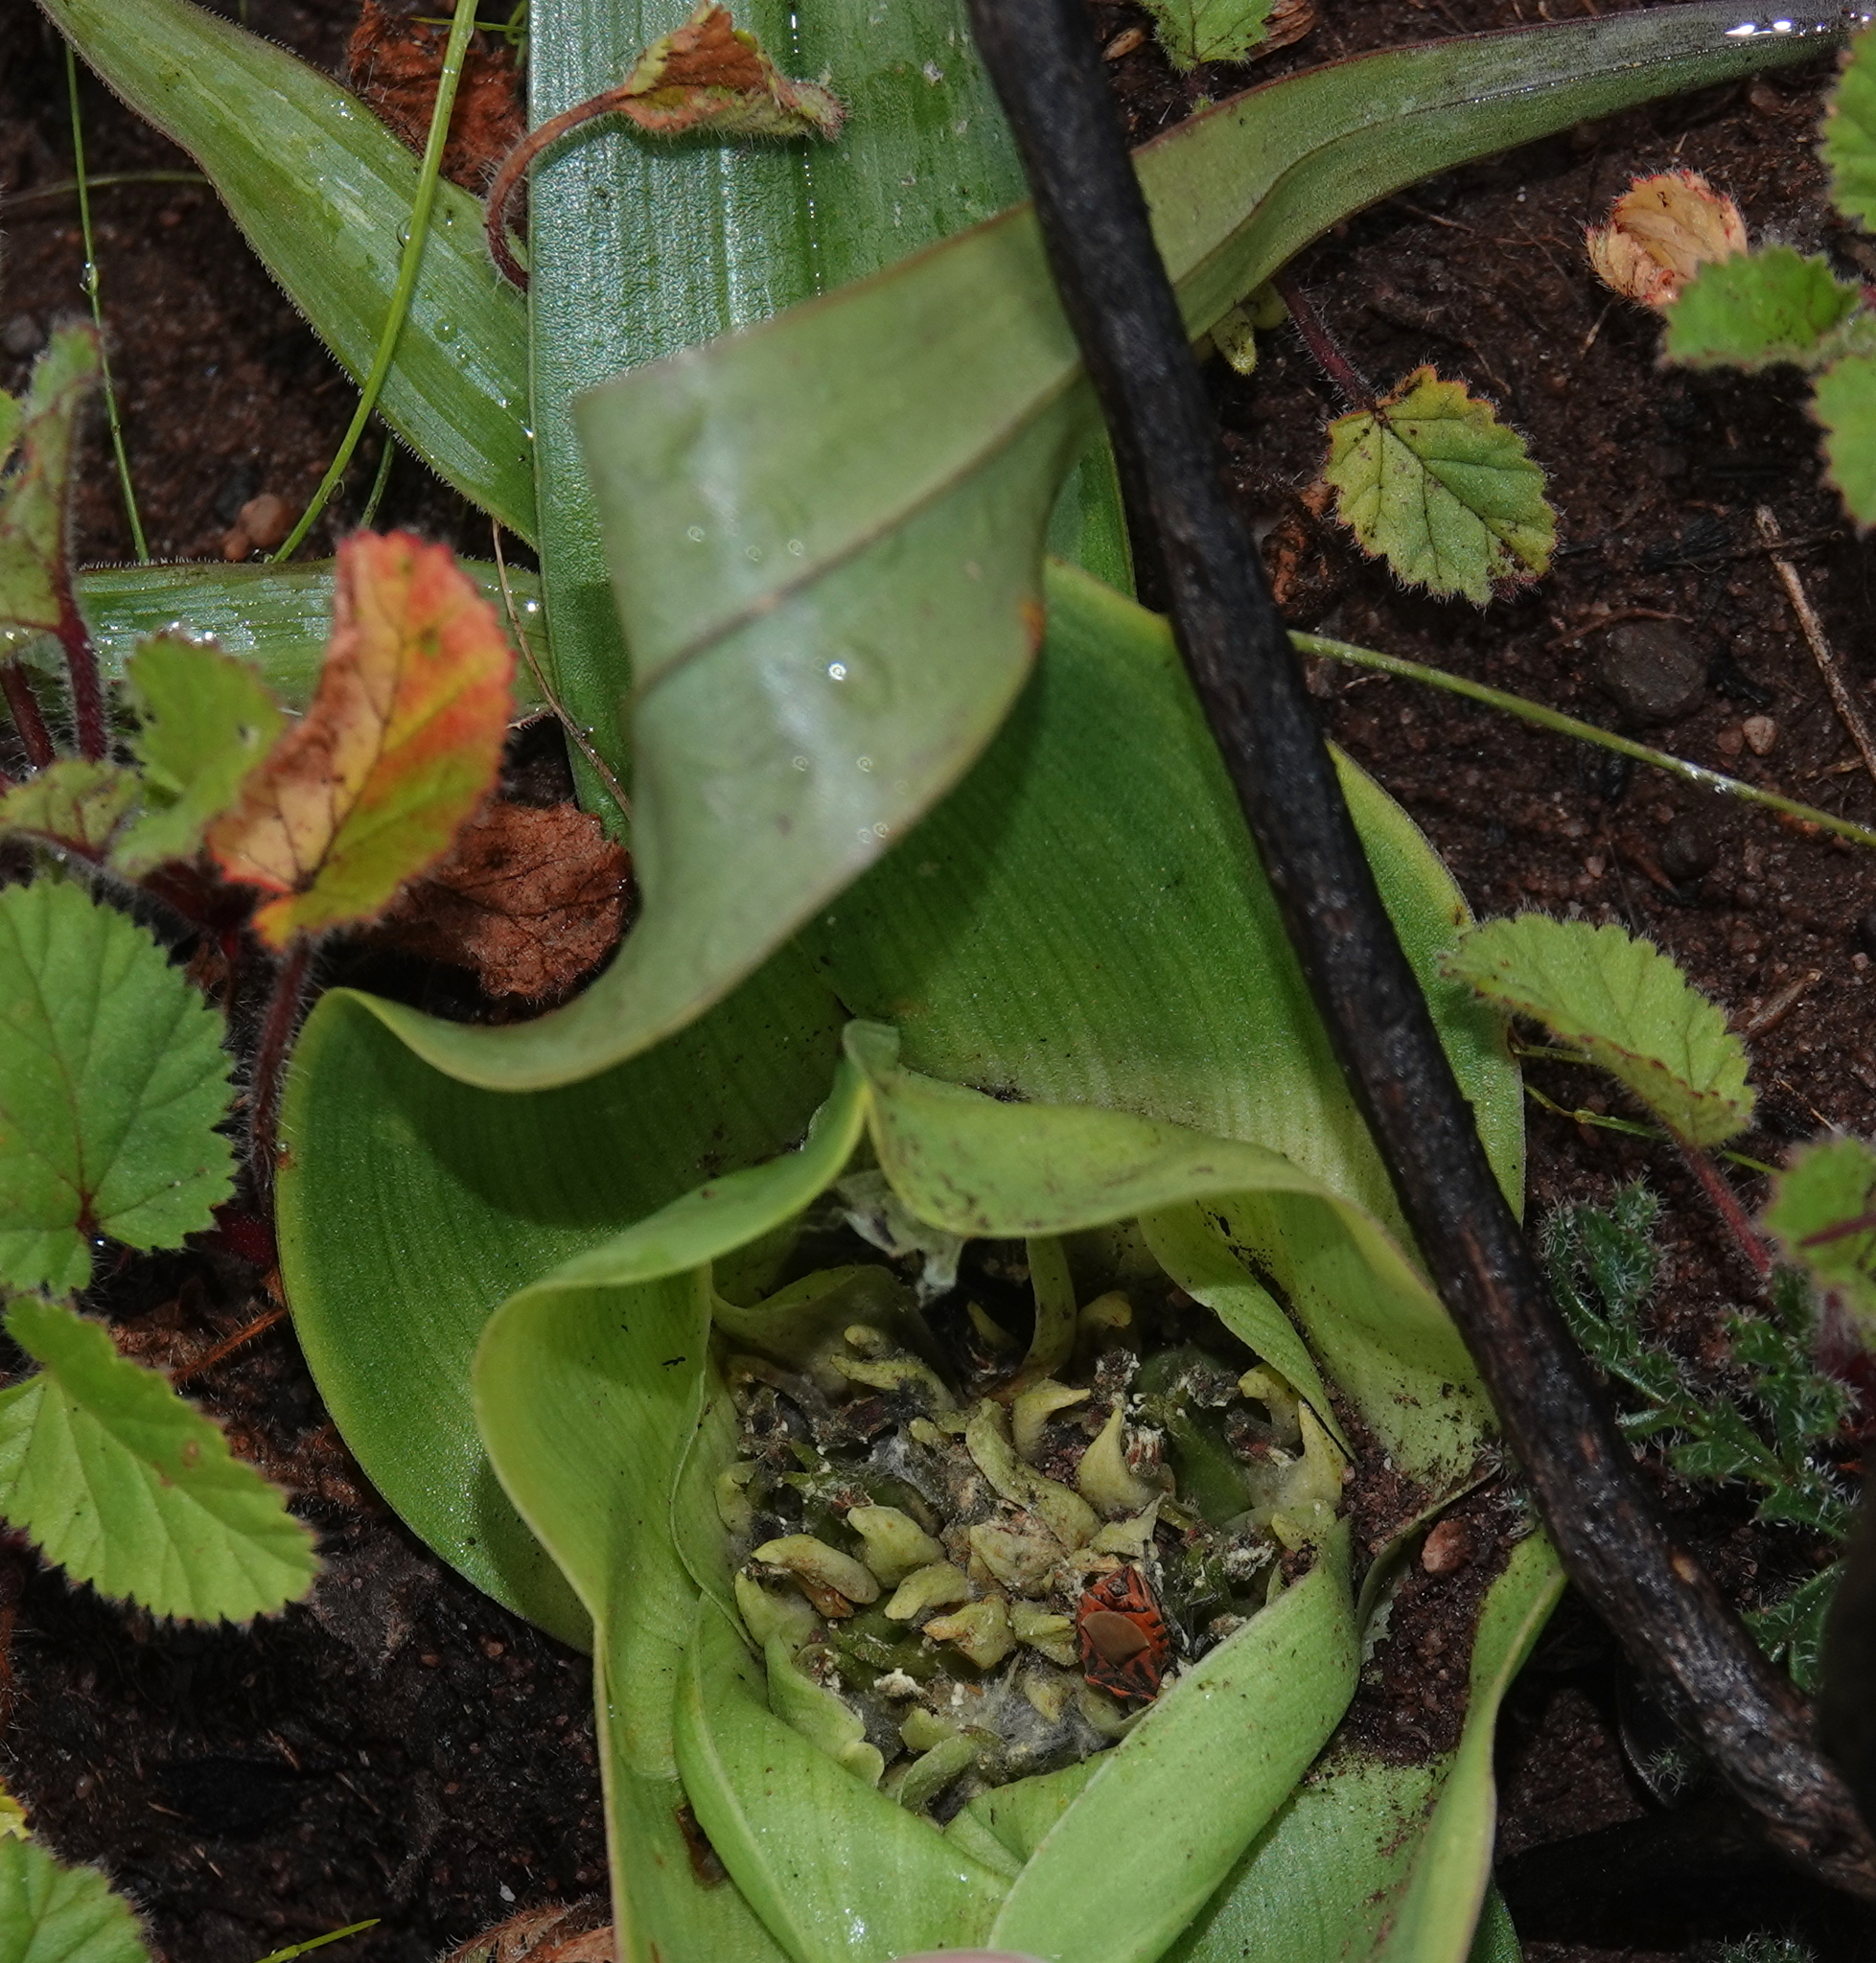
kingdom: Plantae
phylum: Tracheophyta
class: Liliopsida
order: Liliales
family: Colchicaceae
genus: Colchicum
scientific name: Colchicum eucomoides
